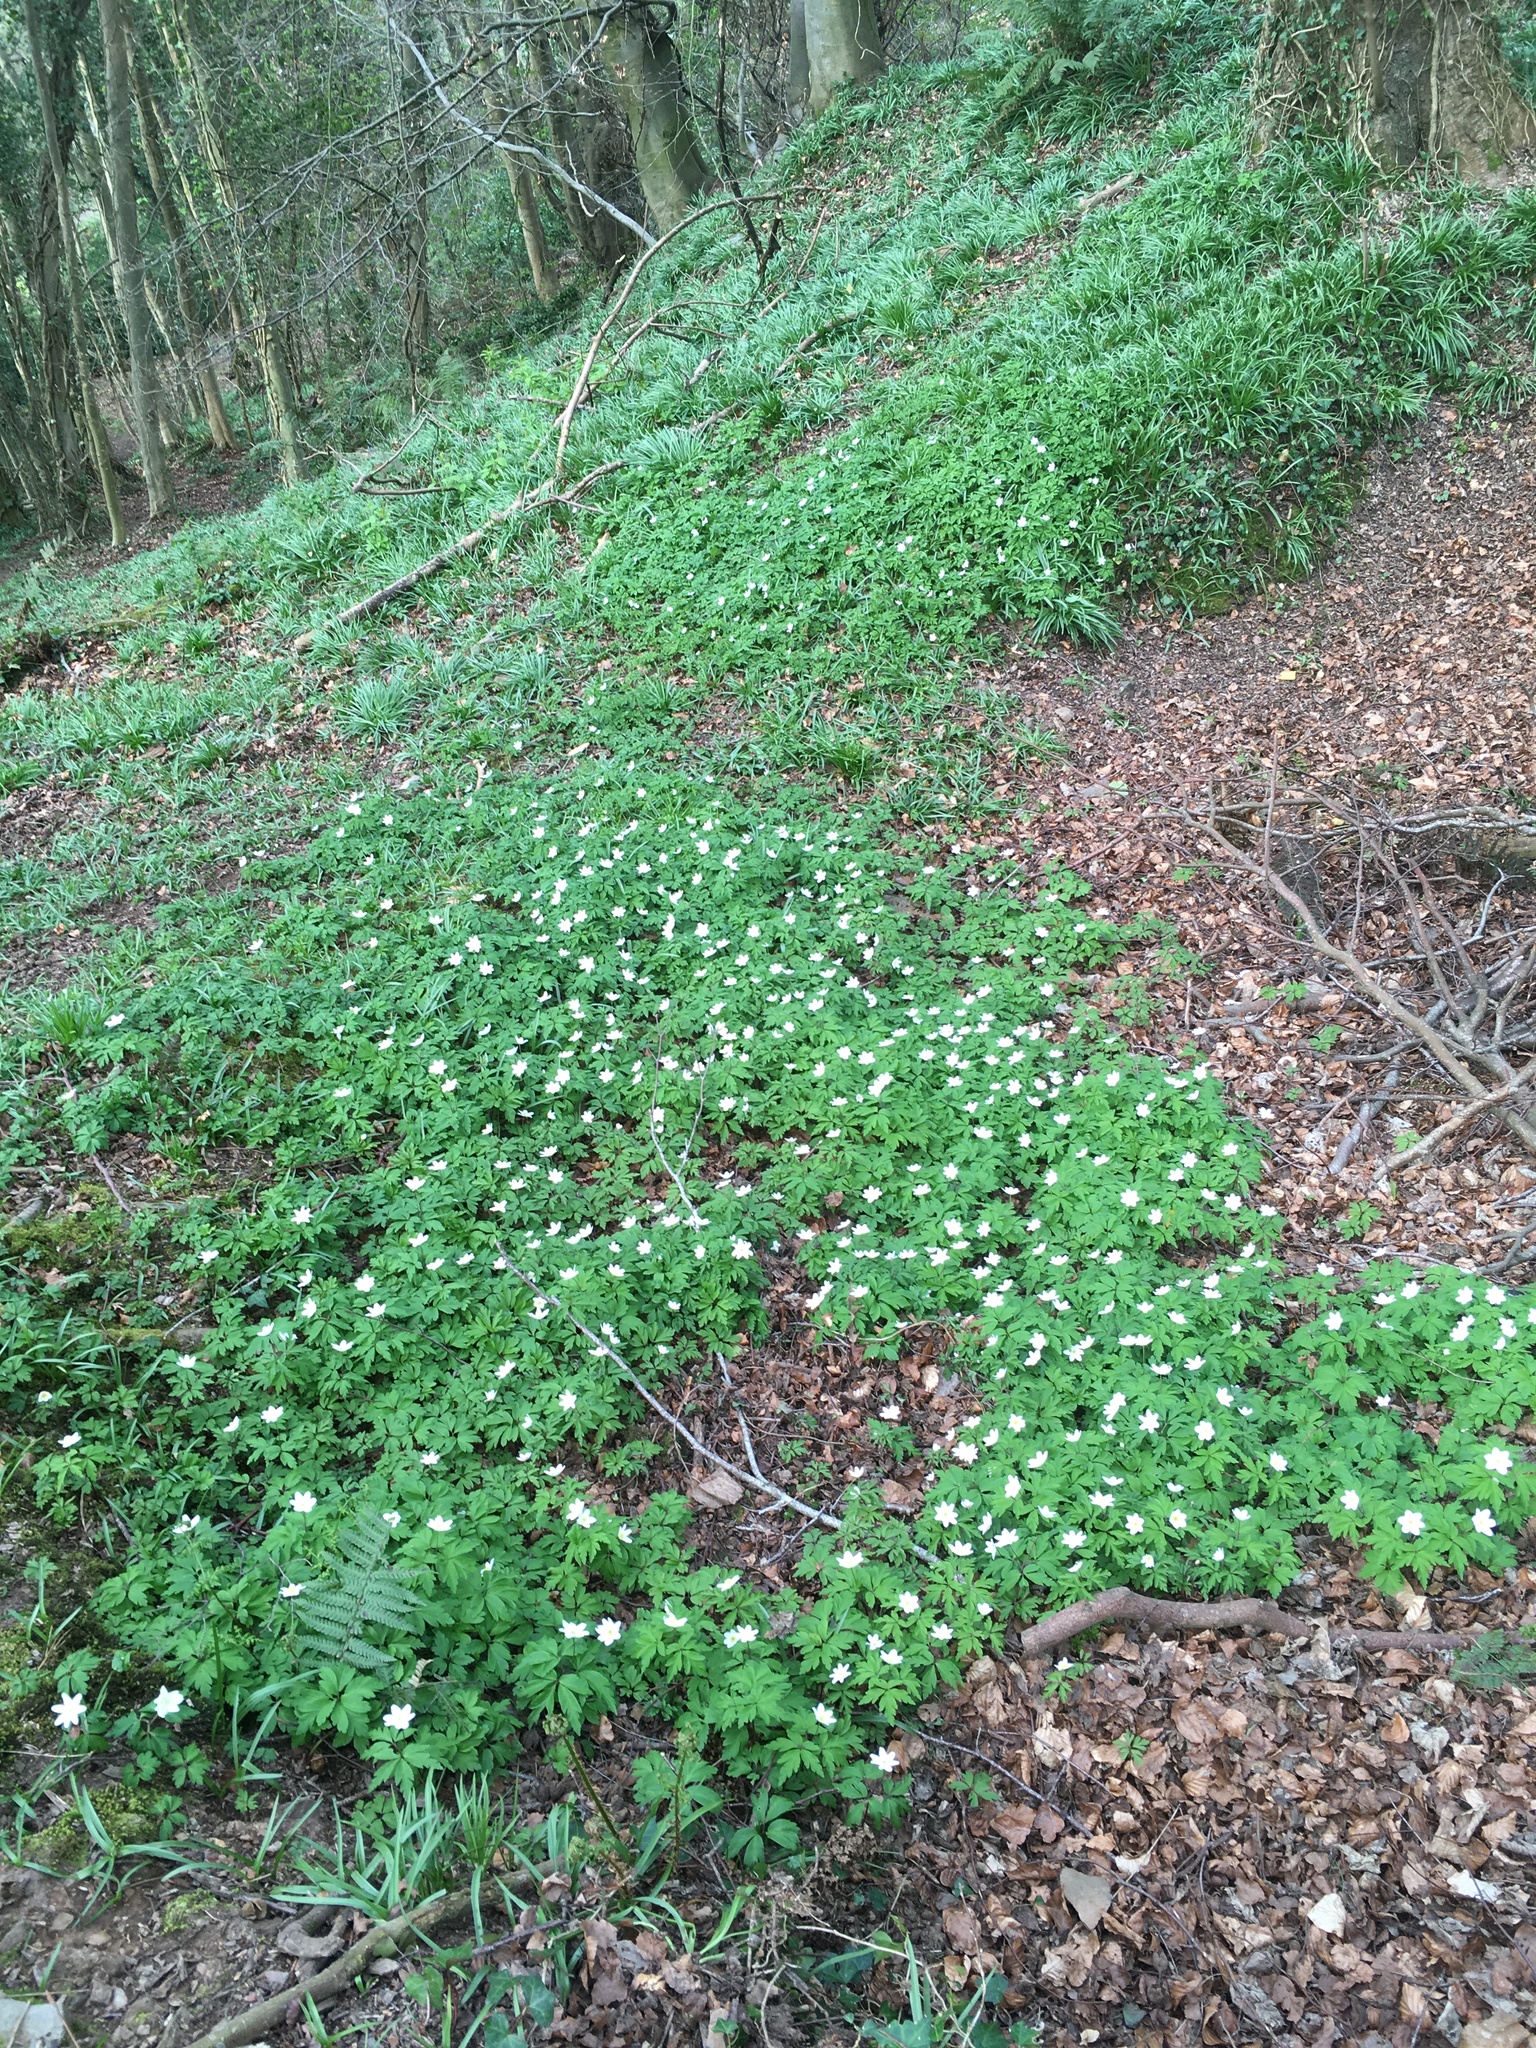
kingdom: Plantae
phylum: Tracheophyta
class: Magnoliopsida
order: Ranunculales
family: Ranunculaceae
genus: Anemone
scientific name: Anemone nemorosa
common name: Wood anemone
